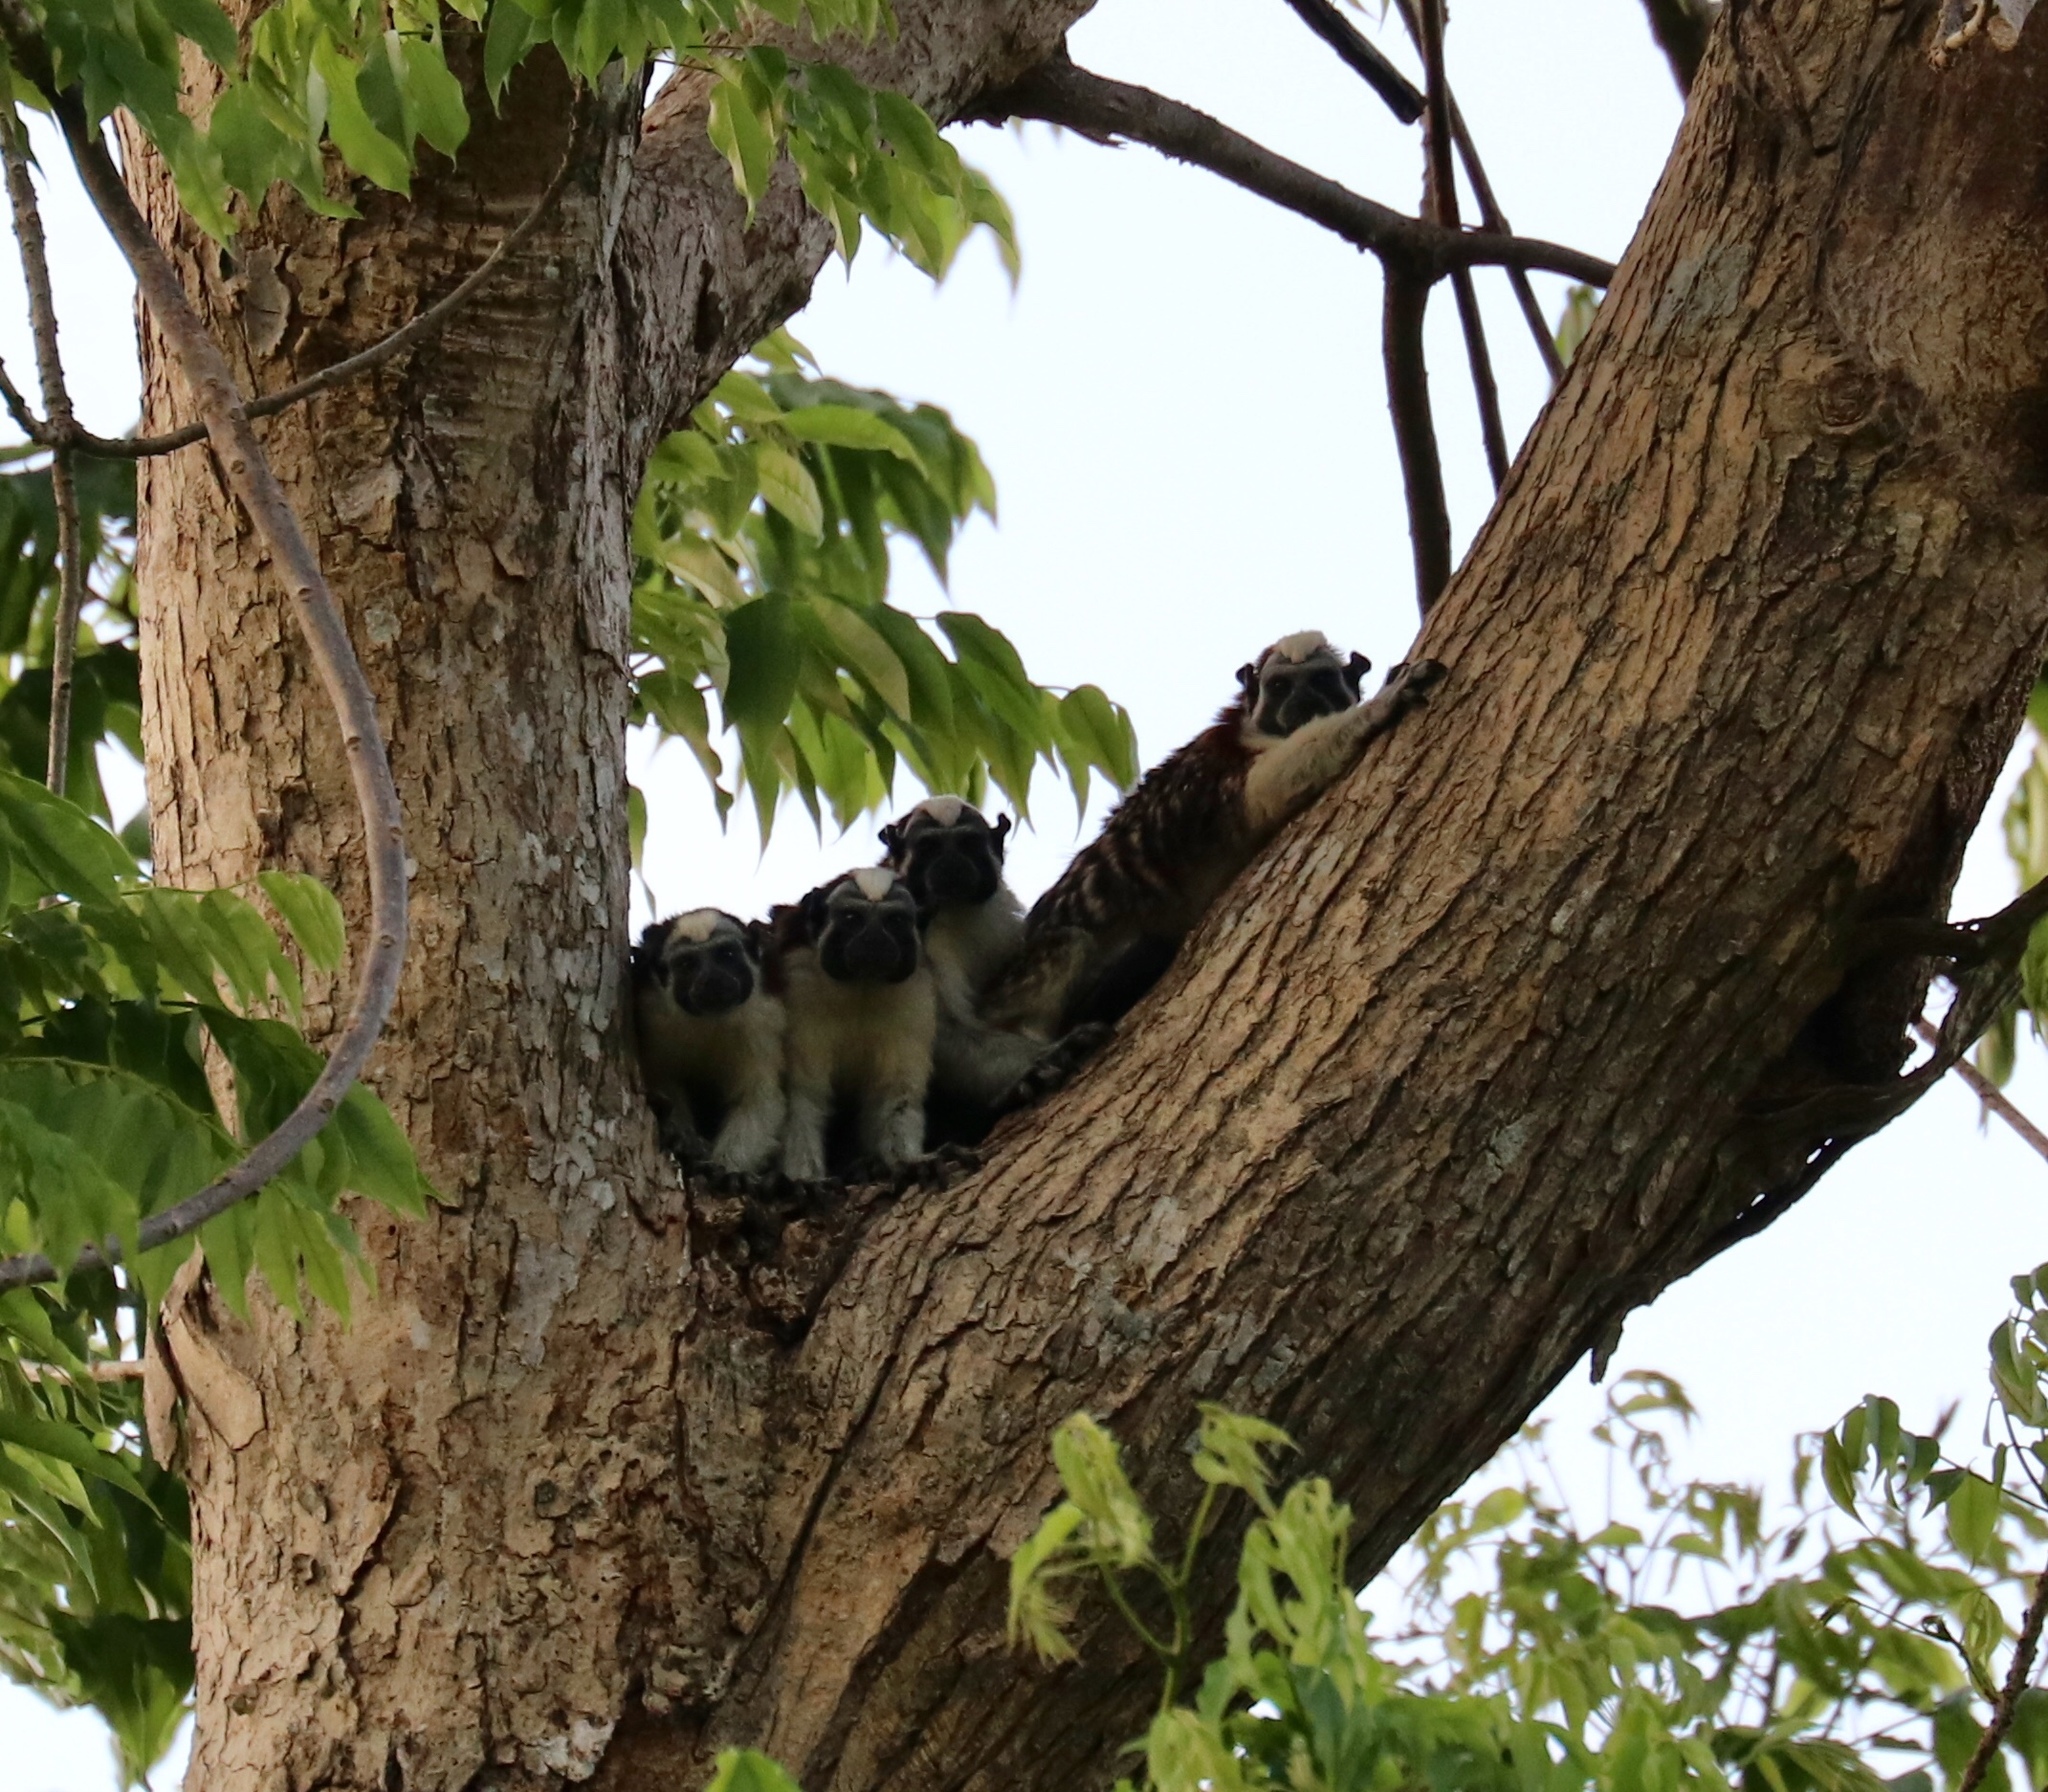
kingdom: Animalia
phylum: Chordata
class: Mammalia
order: Primates
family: Callitrichidae
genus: Saguinus
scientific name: Saguinus geoffroyi
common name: Geoffroy s tamarin
